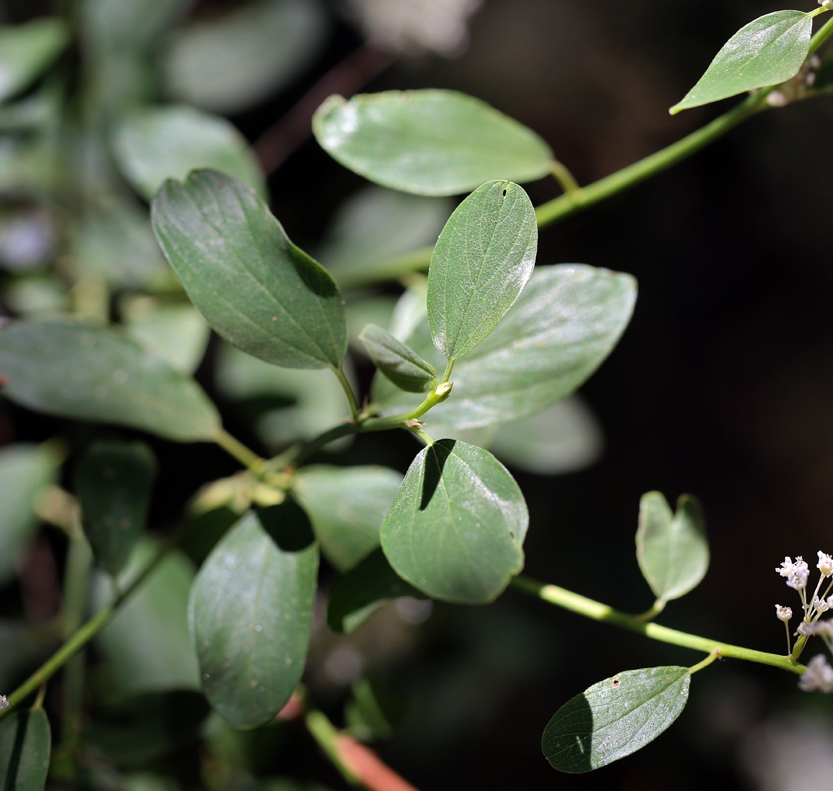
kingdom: Plantae
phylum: Tracheophyta
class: Magnoliopsida
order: Rosales
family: Rhamnaceae
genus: Ceanothus
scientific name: Ceanothus integerrimus
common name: Deerbrush ceanothus
